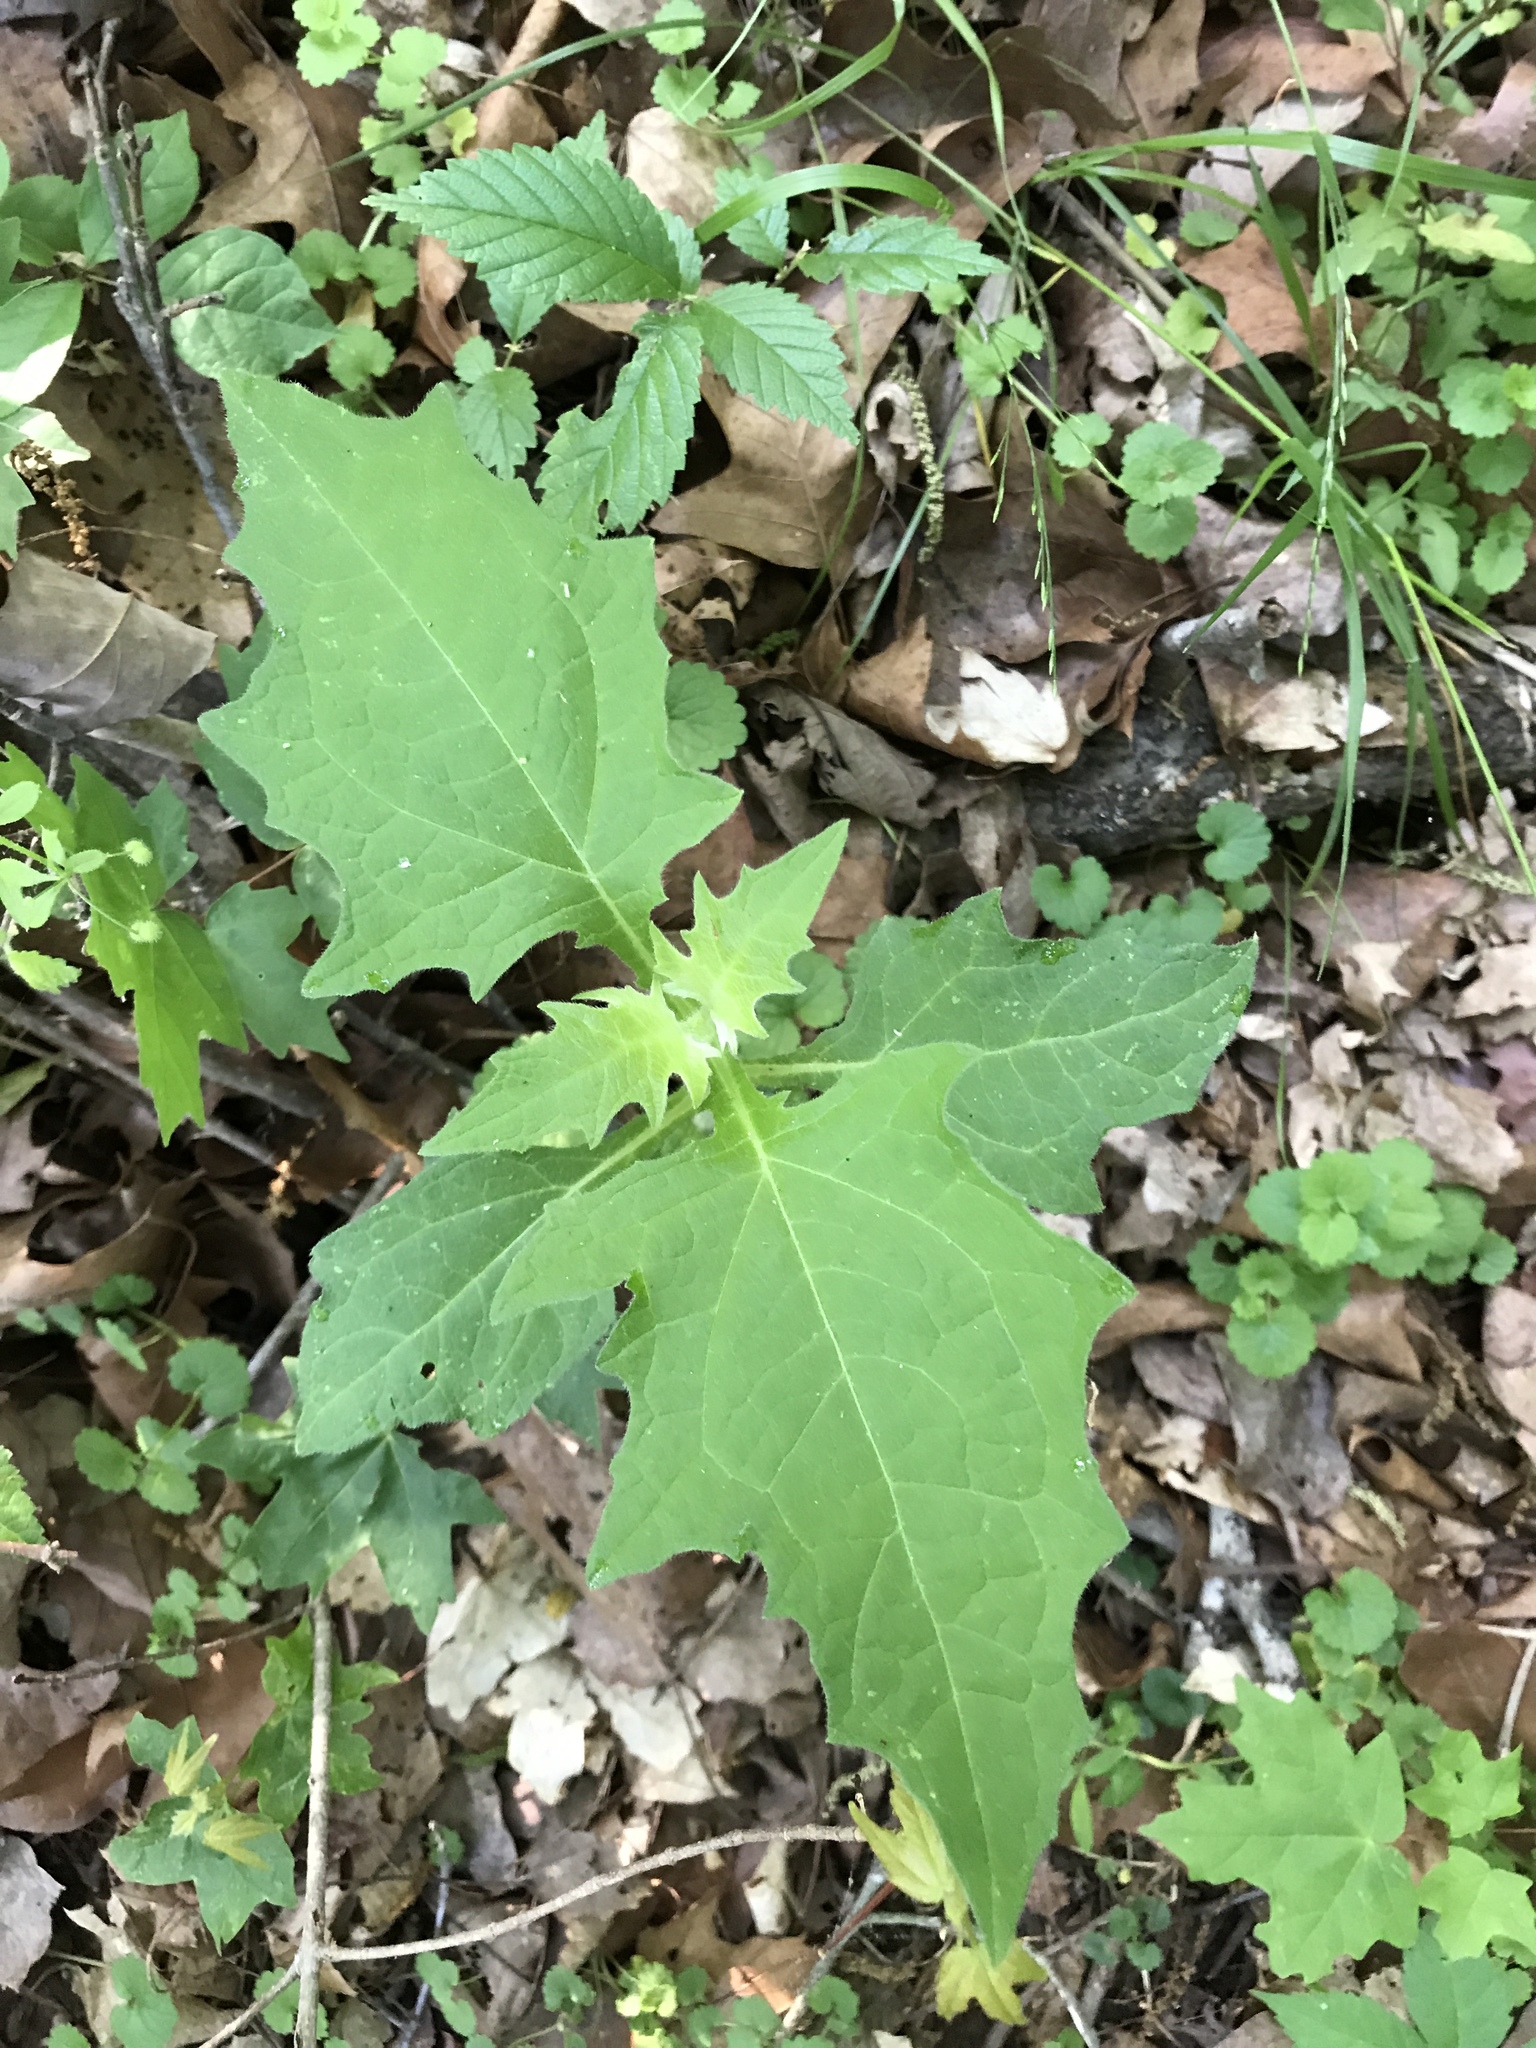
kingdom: Plantae
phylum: Tracheophyta
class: Magnoliopsida
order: Asterales
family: Asteraceae
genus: Smallanthus
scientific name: Smallanthus uvedalia
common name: Bear's-foot
